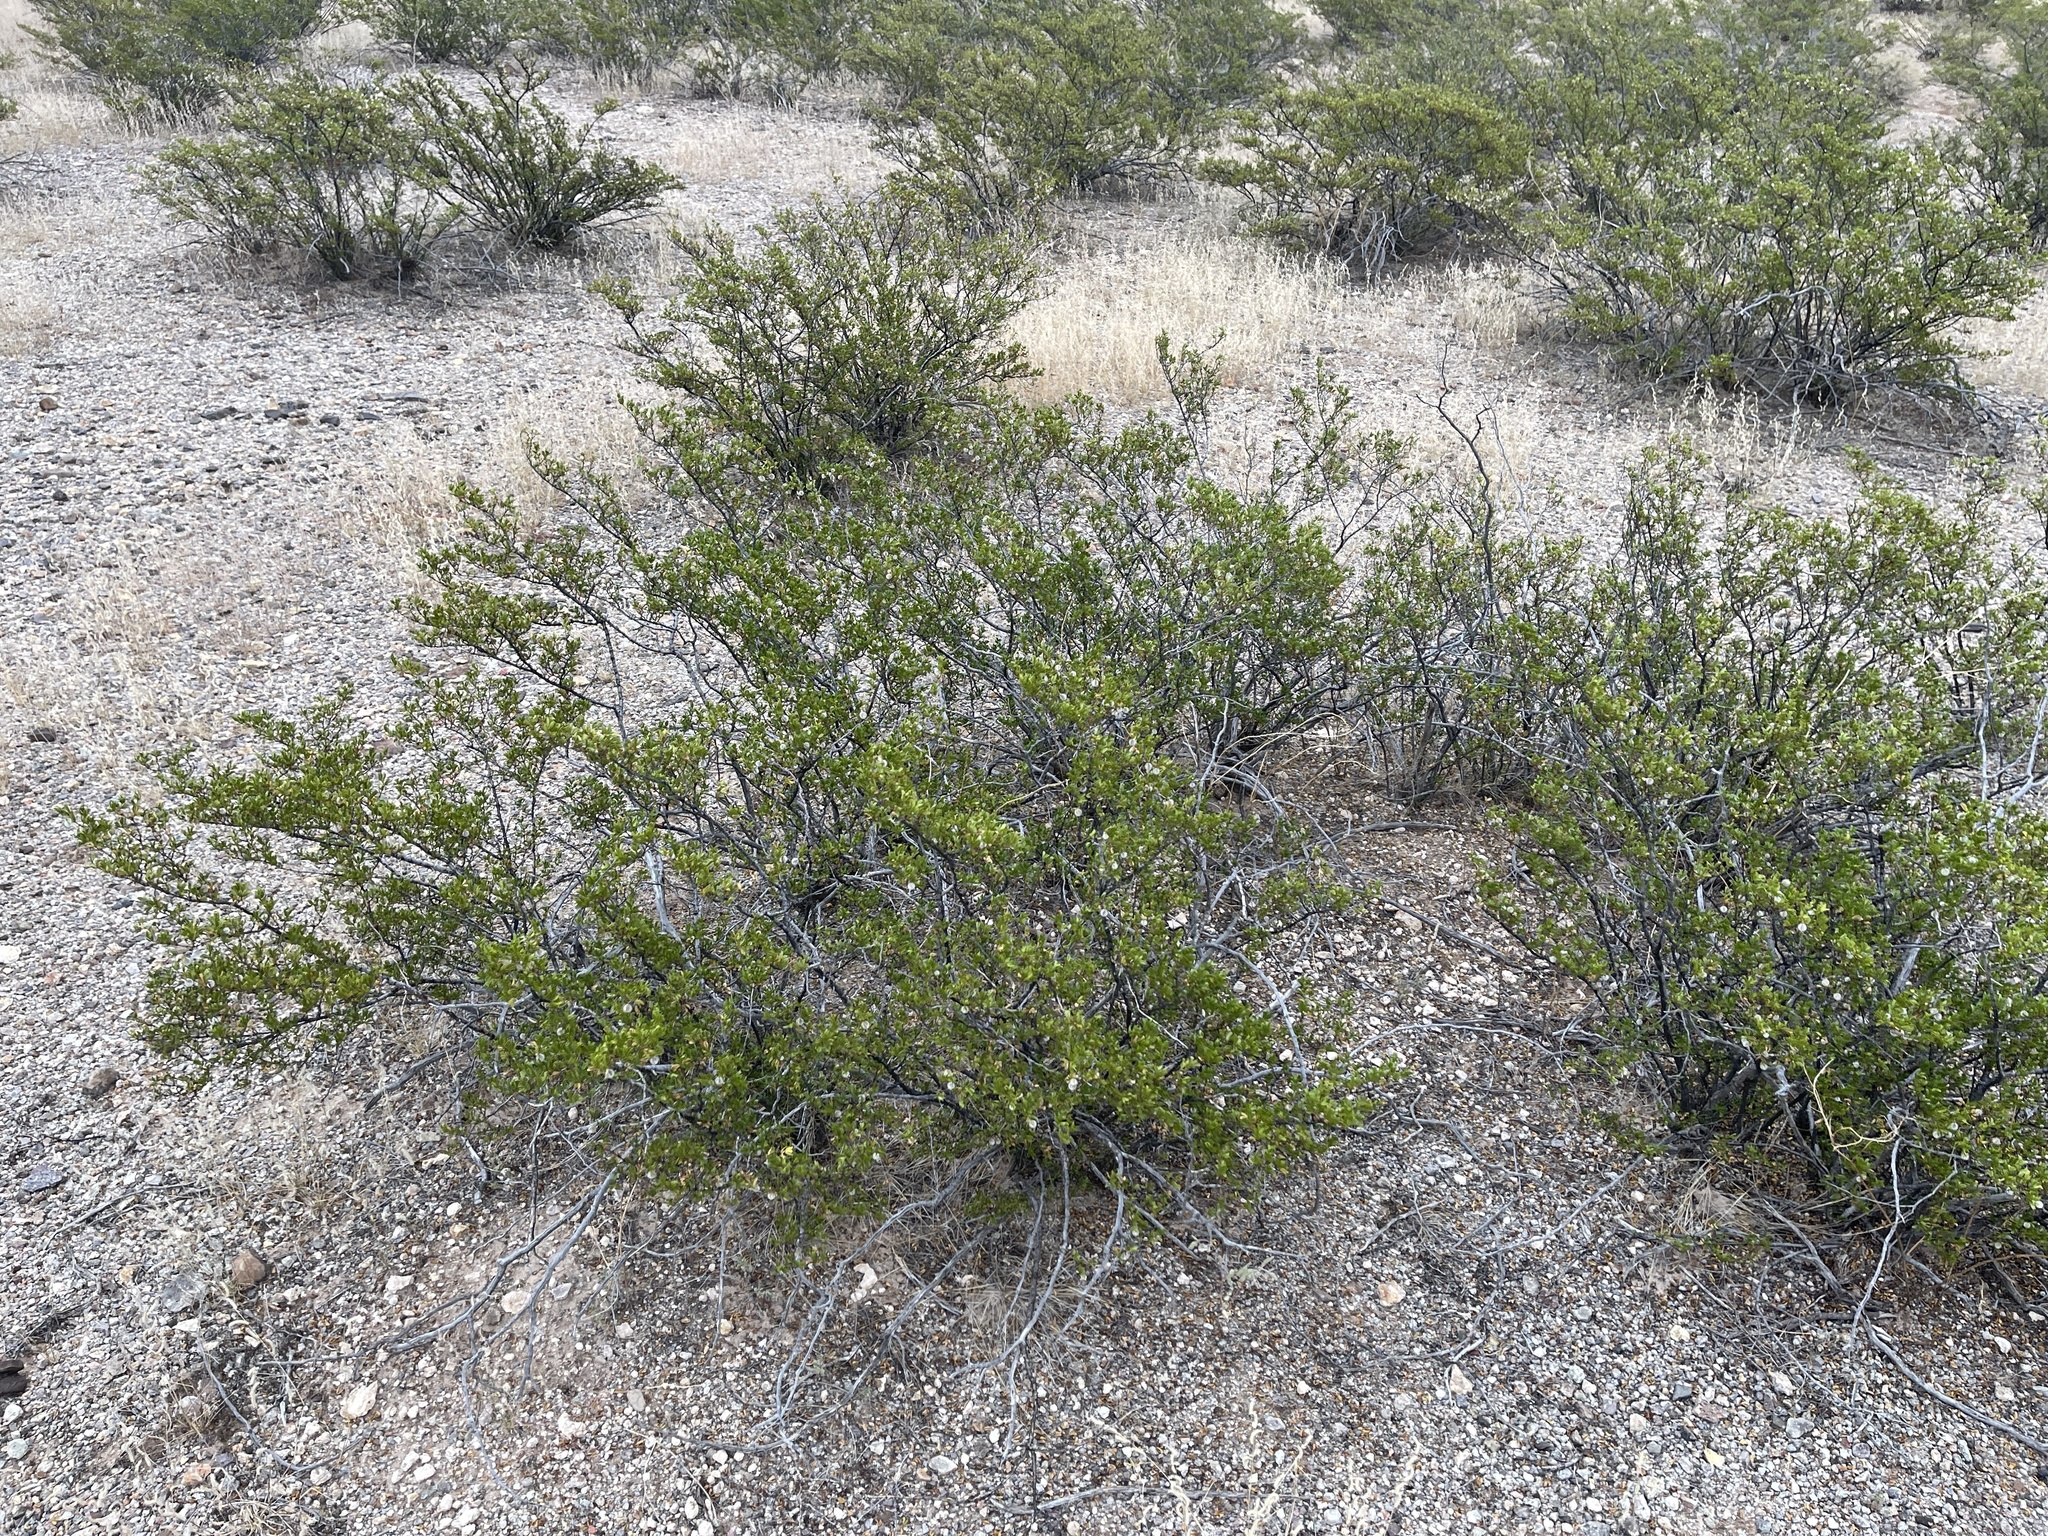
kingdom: Plantae
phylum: Tracheophyta
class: Magnoliopsida
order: Zygophyllales
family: Zygophyllaceae
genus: Larrea
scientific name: Larrea tridentata
